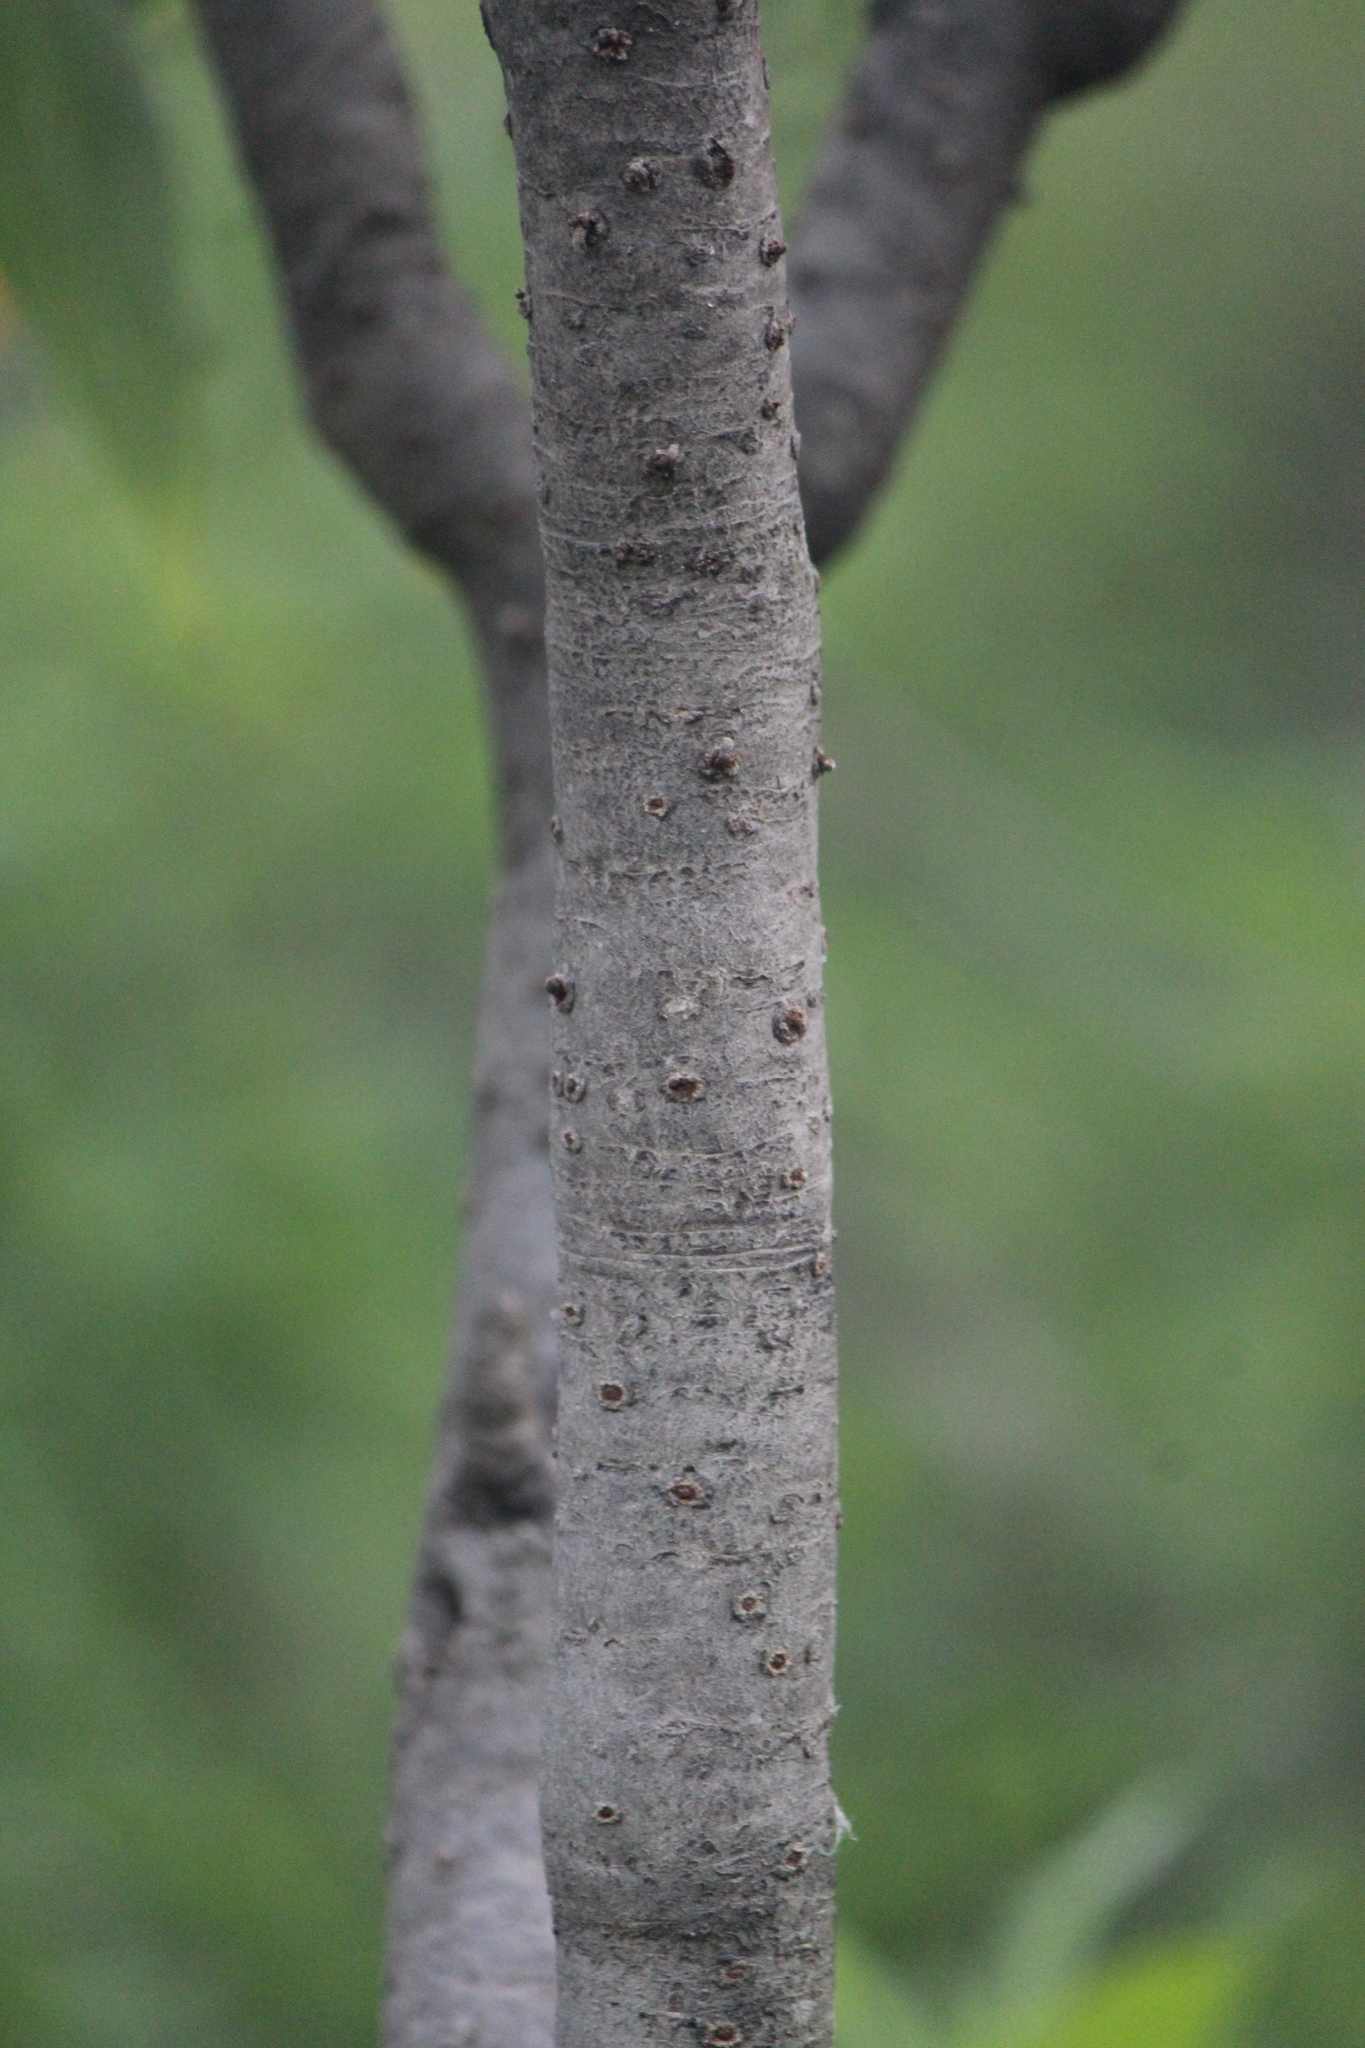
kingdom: Plantae
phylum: Tracheophyta
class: Magnoliopsida
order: Asterales
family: Asteraceae
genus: Pittocaulon
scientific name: Pittocaulon praecox
